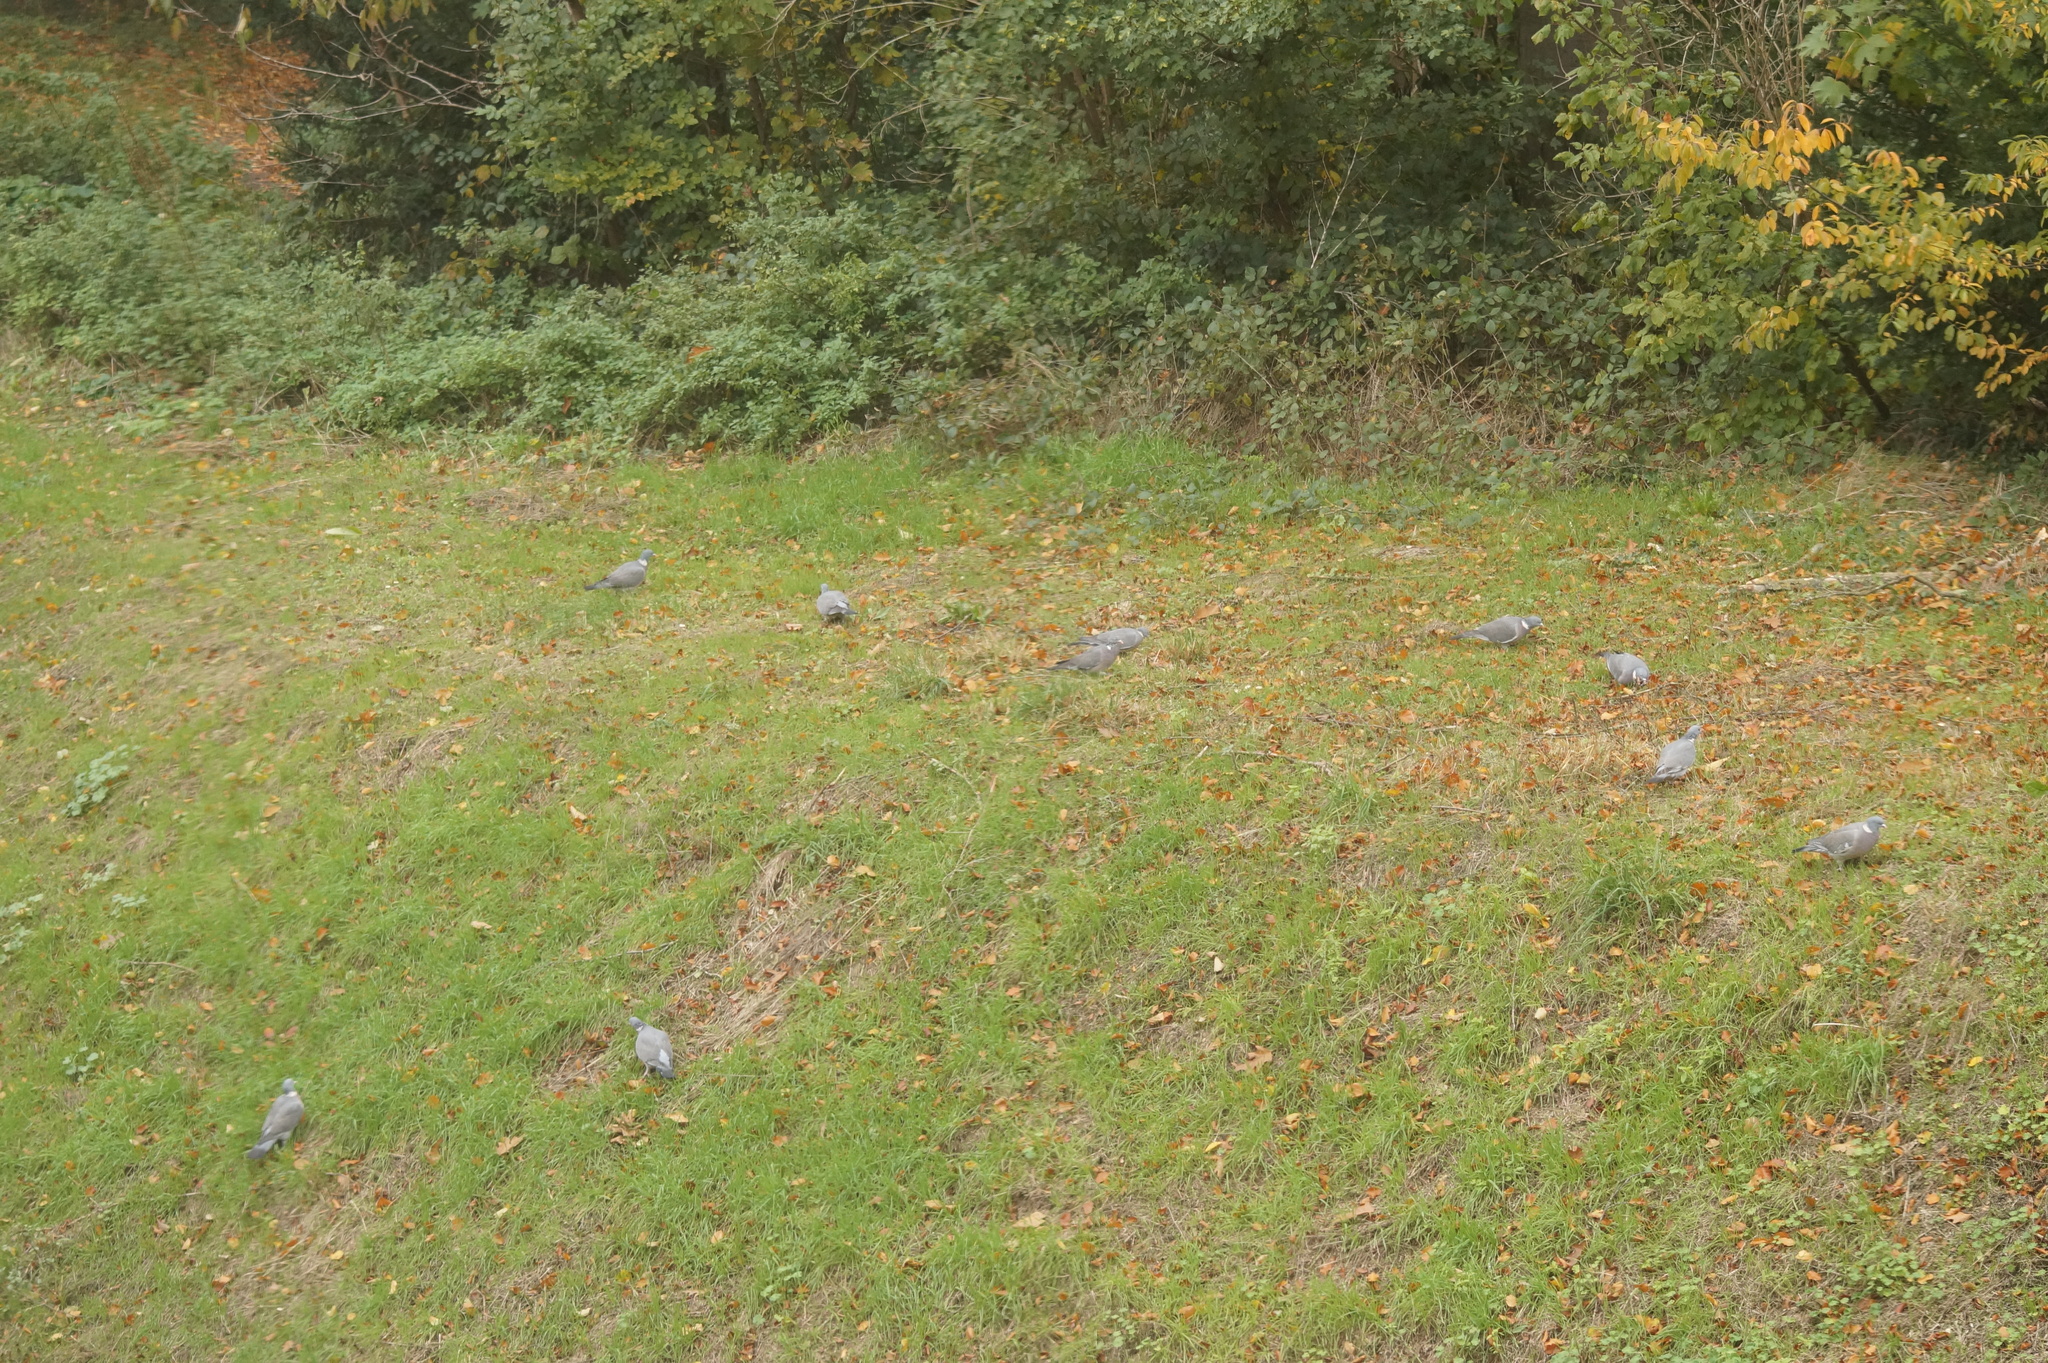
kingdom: Animalia
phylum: Chordata
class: Aves
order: Columbiformes
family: Columbidae
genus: Columba
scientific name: Columba palumbus
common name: Common wood pigeon
